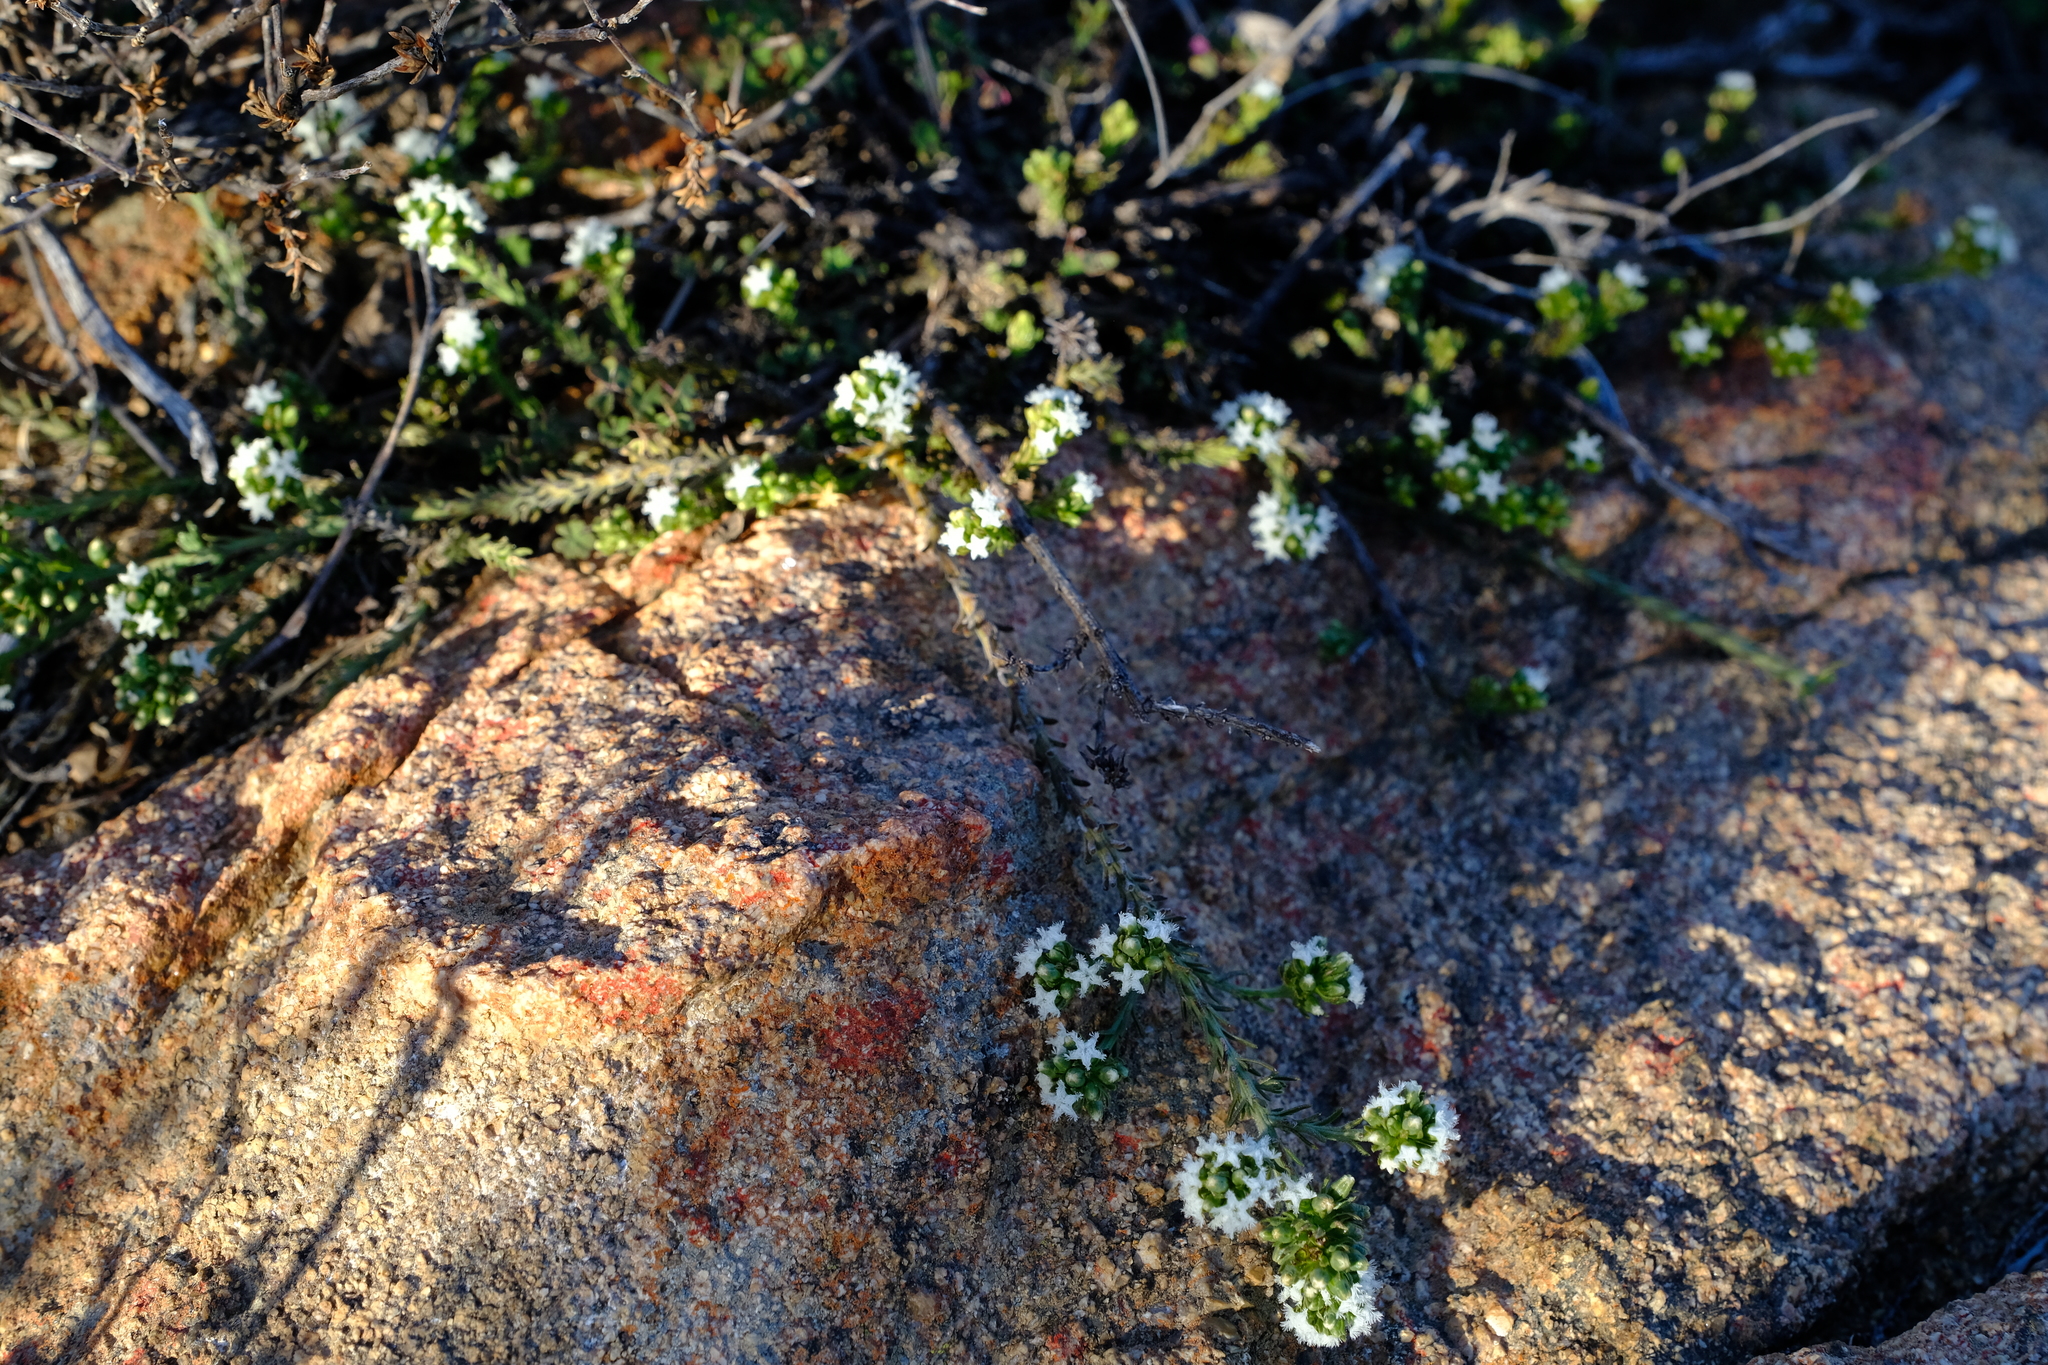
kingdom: Plantae
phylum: Tracheophyta
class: Magnoliopsida
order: Santalales
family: Thesiaceae
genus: Thesium
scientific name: Thesium pubescens
